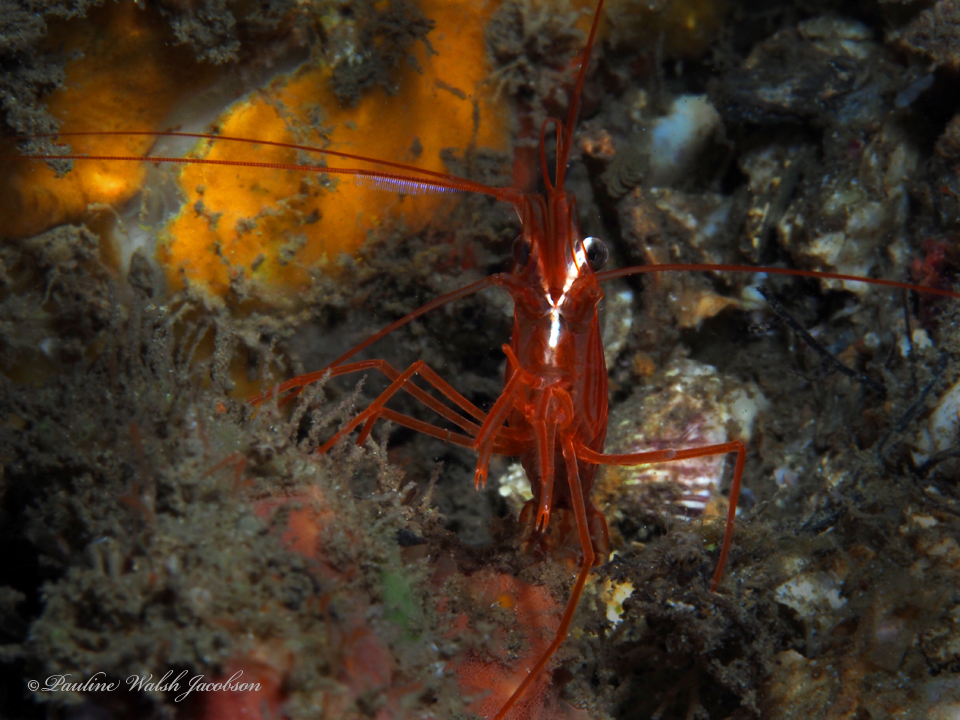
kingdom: Animalia
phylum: Arthropoda
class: Malacostraca
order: Decapoda
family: Lysmatidae
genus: Lysmata
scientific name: Lysmata rafa
